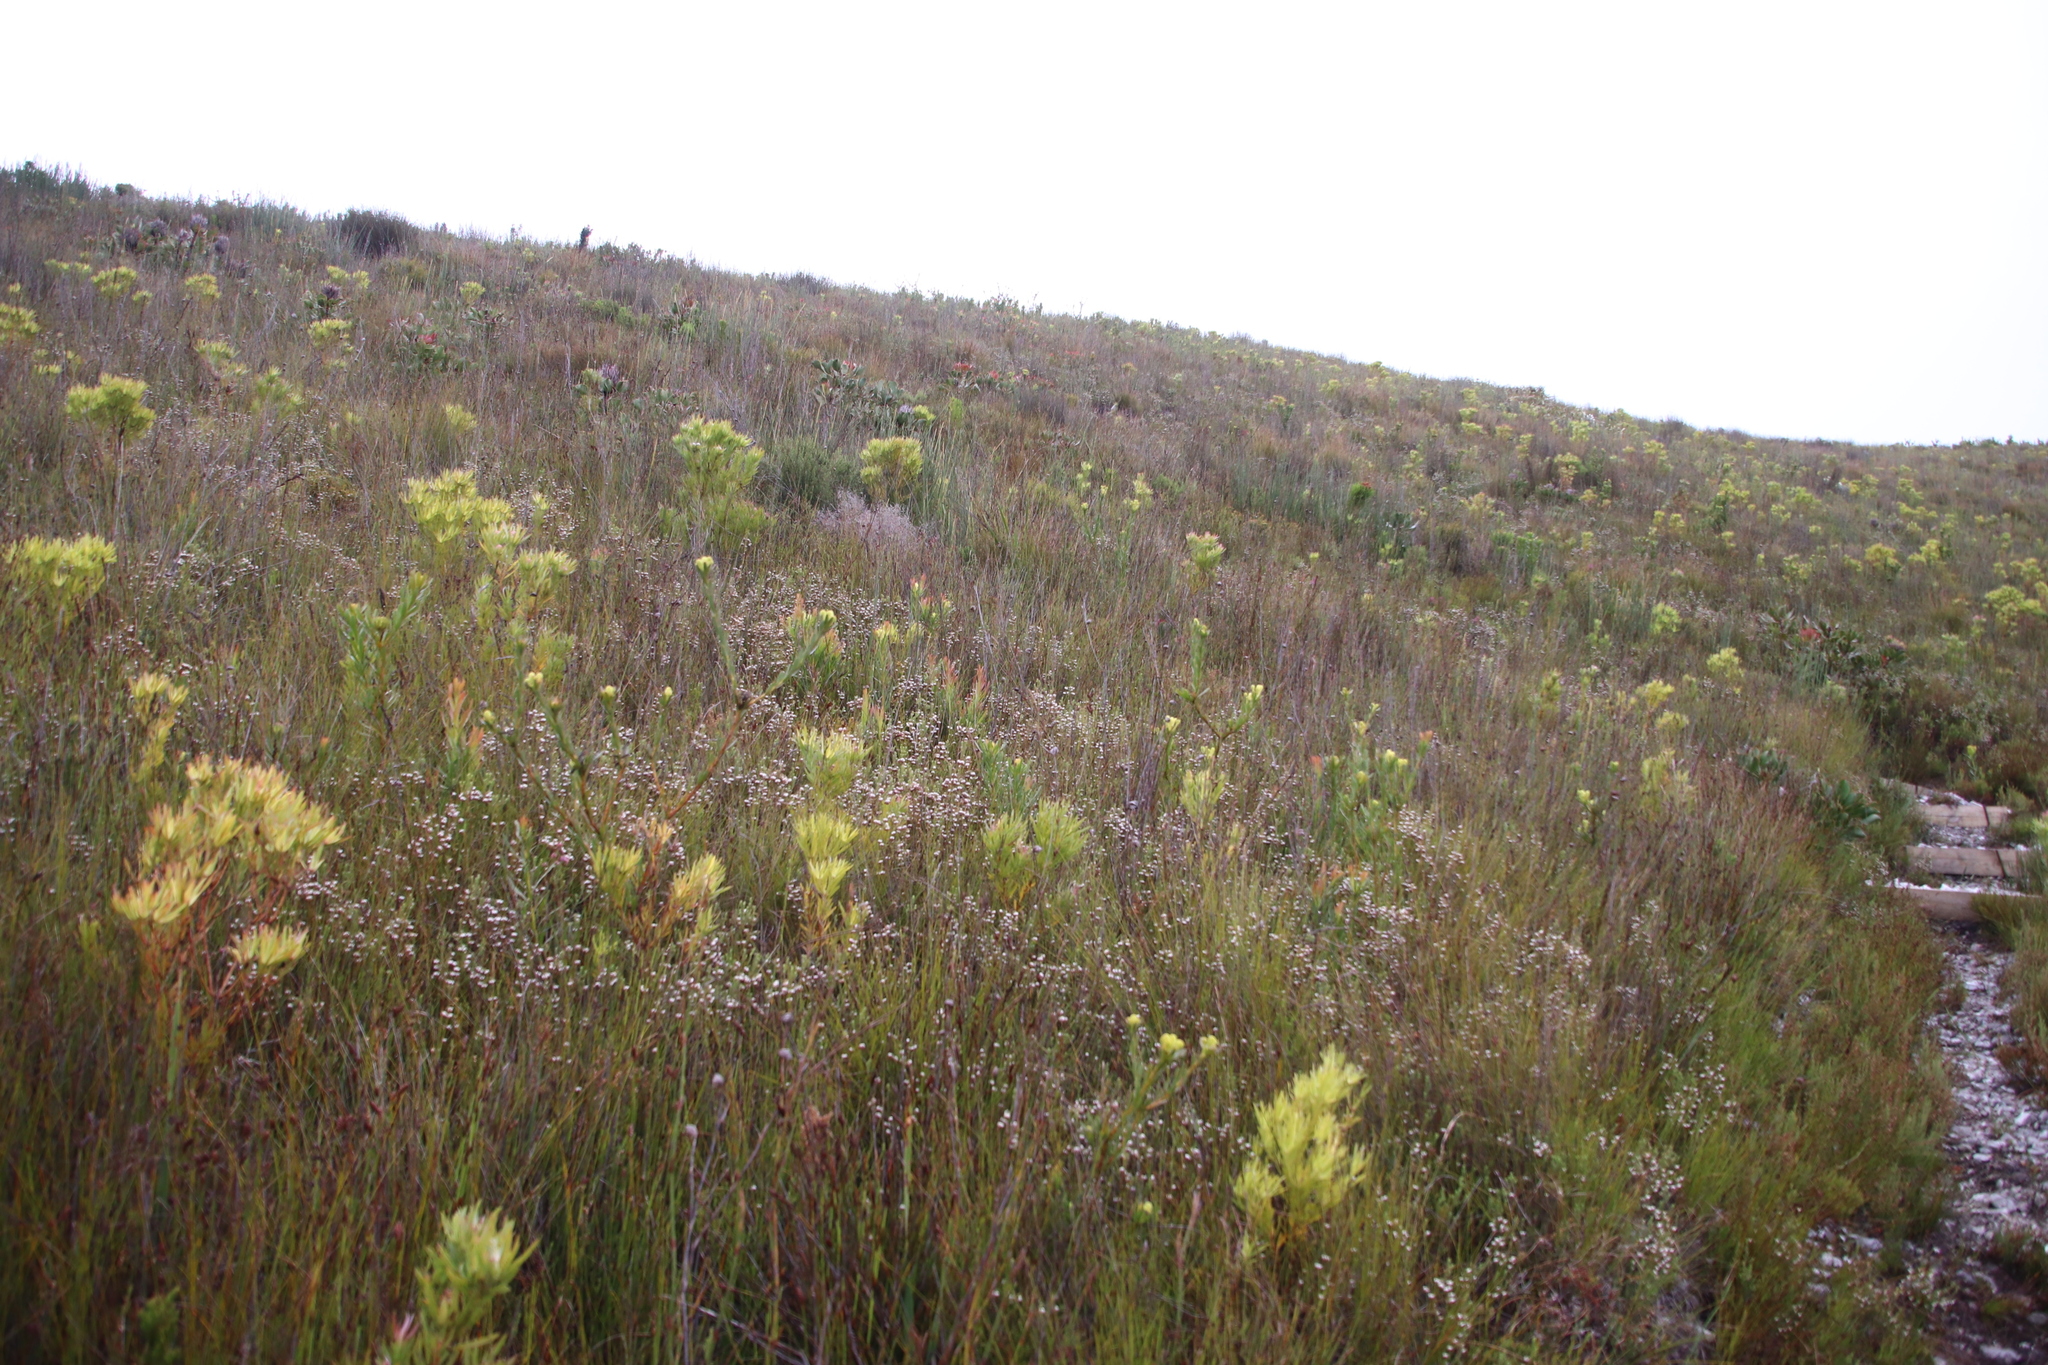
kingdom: Plantae
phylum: Tracheophyta
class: Magnoliopsida
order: Ericales
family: Ericaceae
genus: Erica
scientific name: Erica cumuliflora
